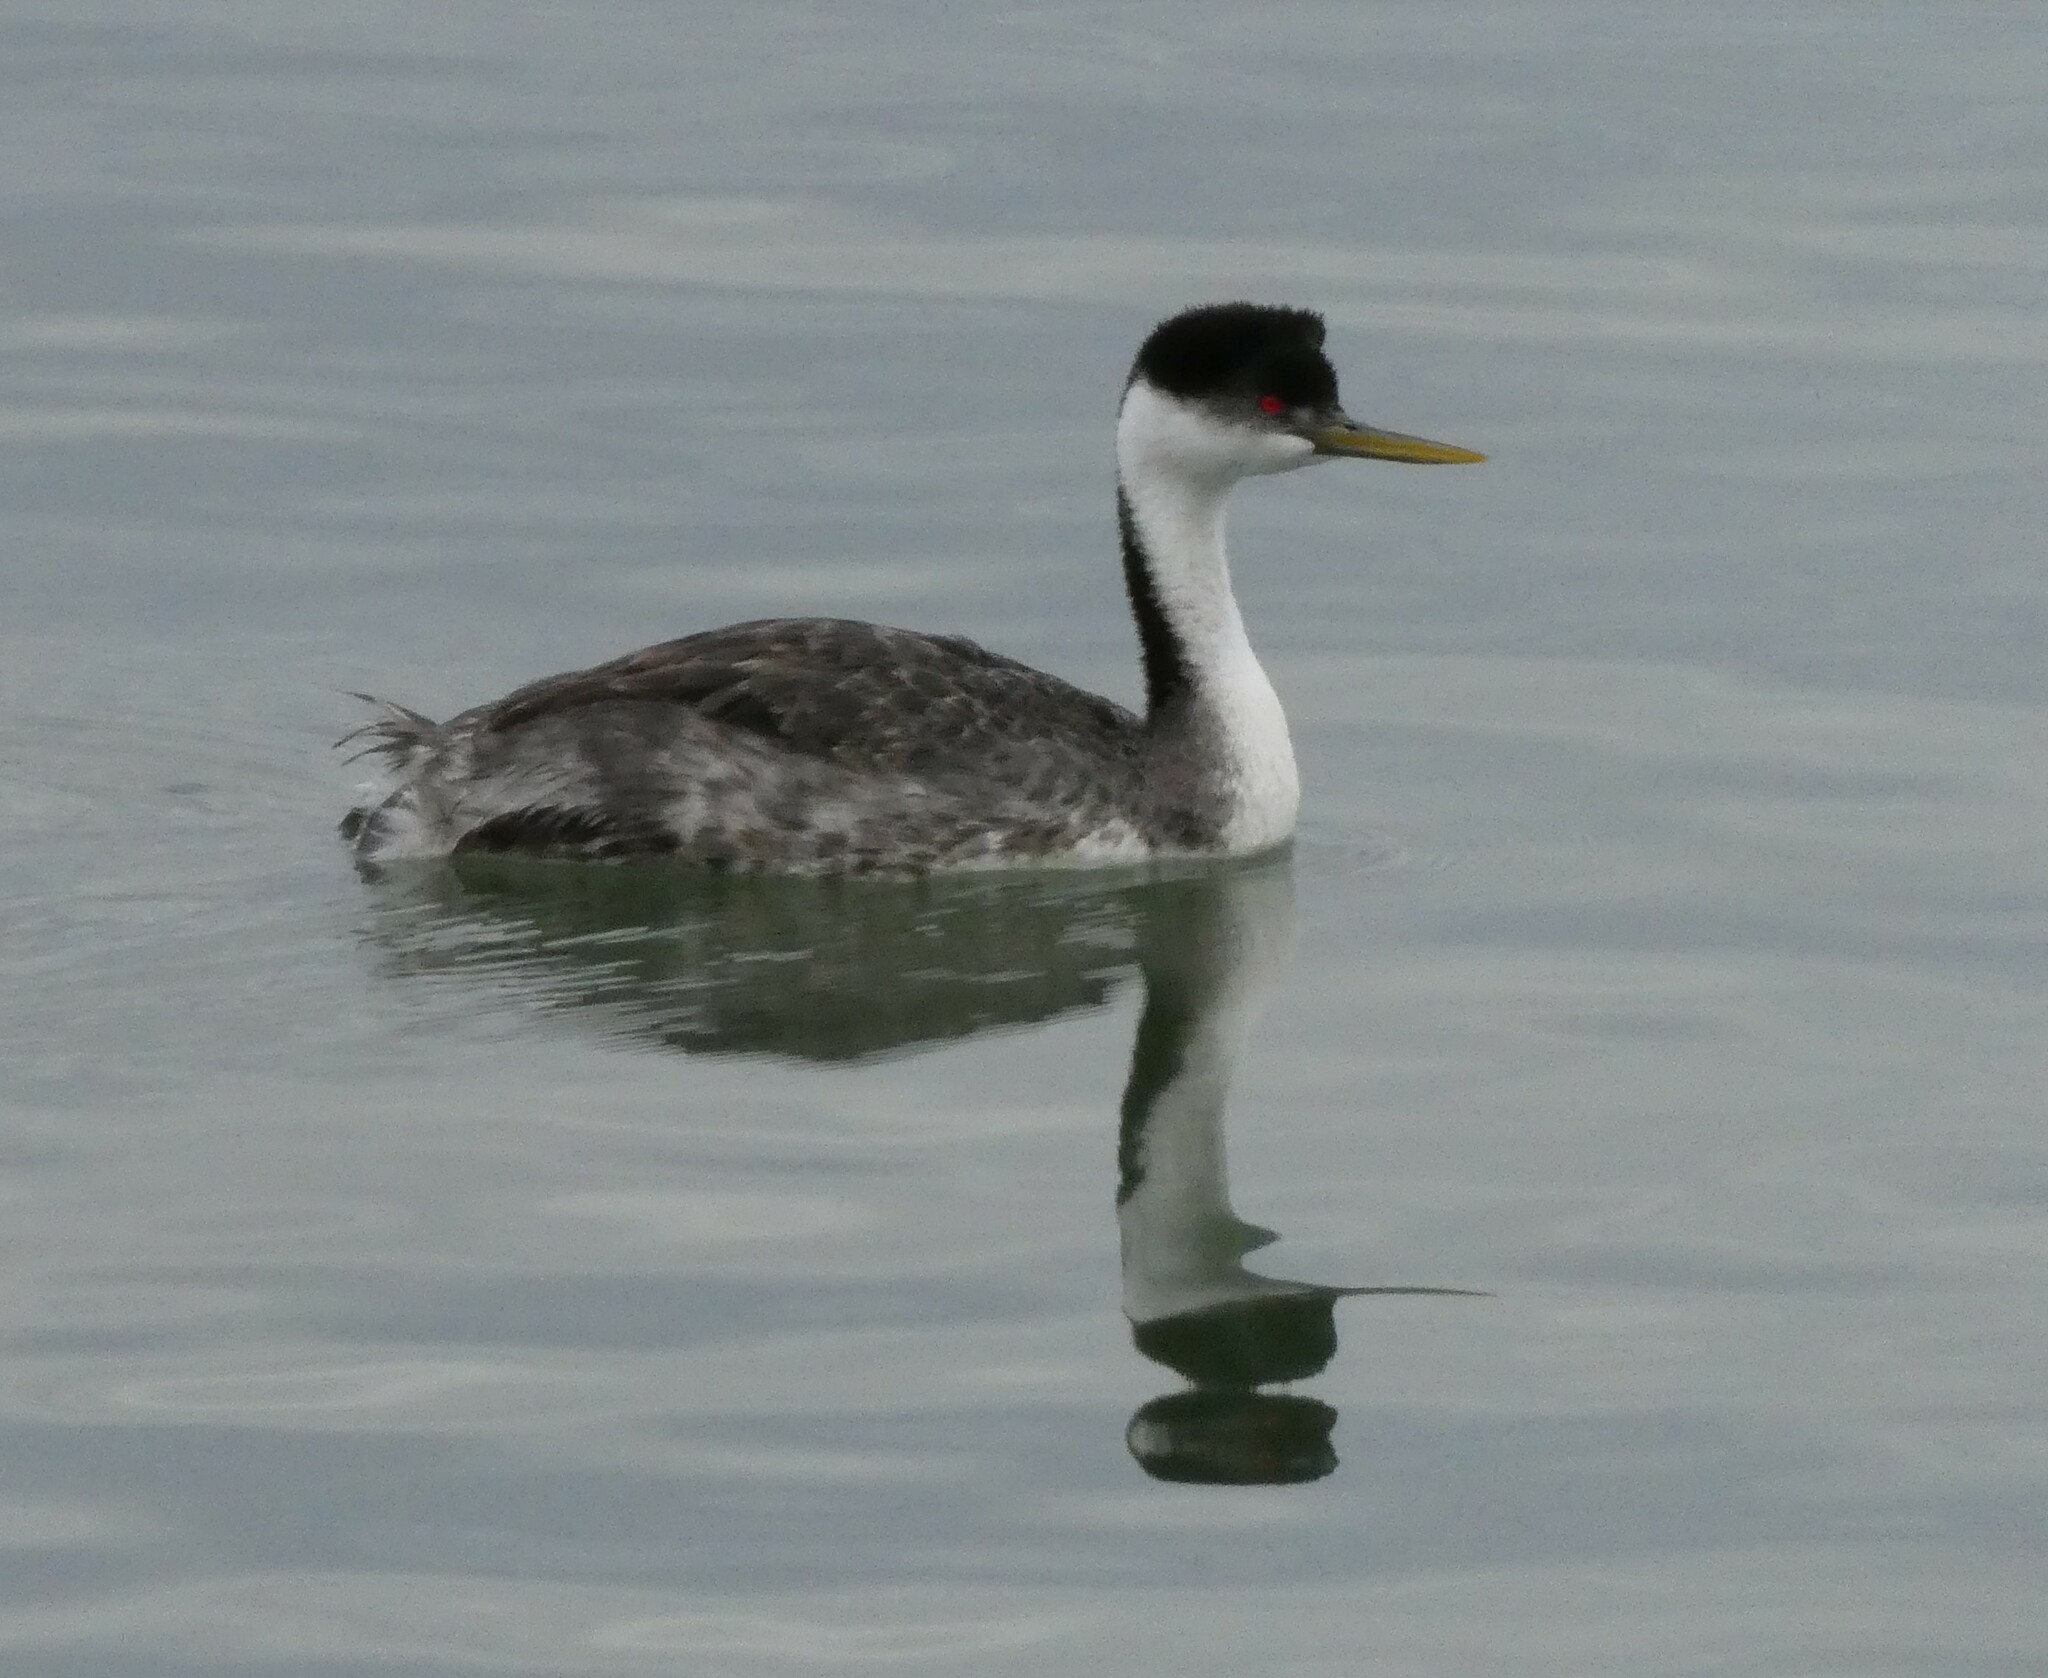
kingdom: Animalia
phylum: Chordata
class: Aves
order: Podicipediformes
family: Podicipedidae
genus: Aechmophorus
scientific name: Aechmophorus occidentalis
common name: Western grebe
